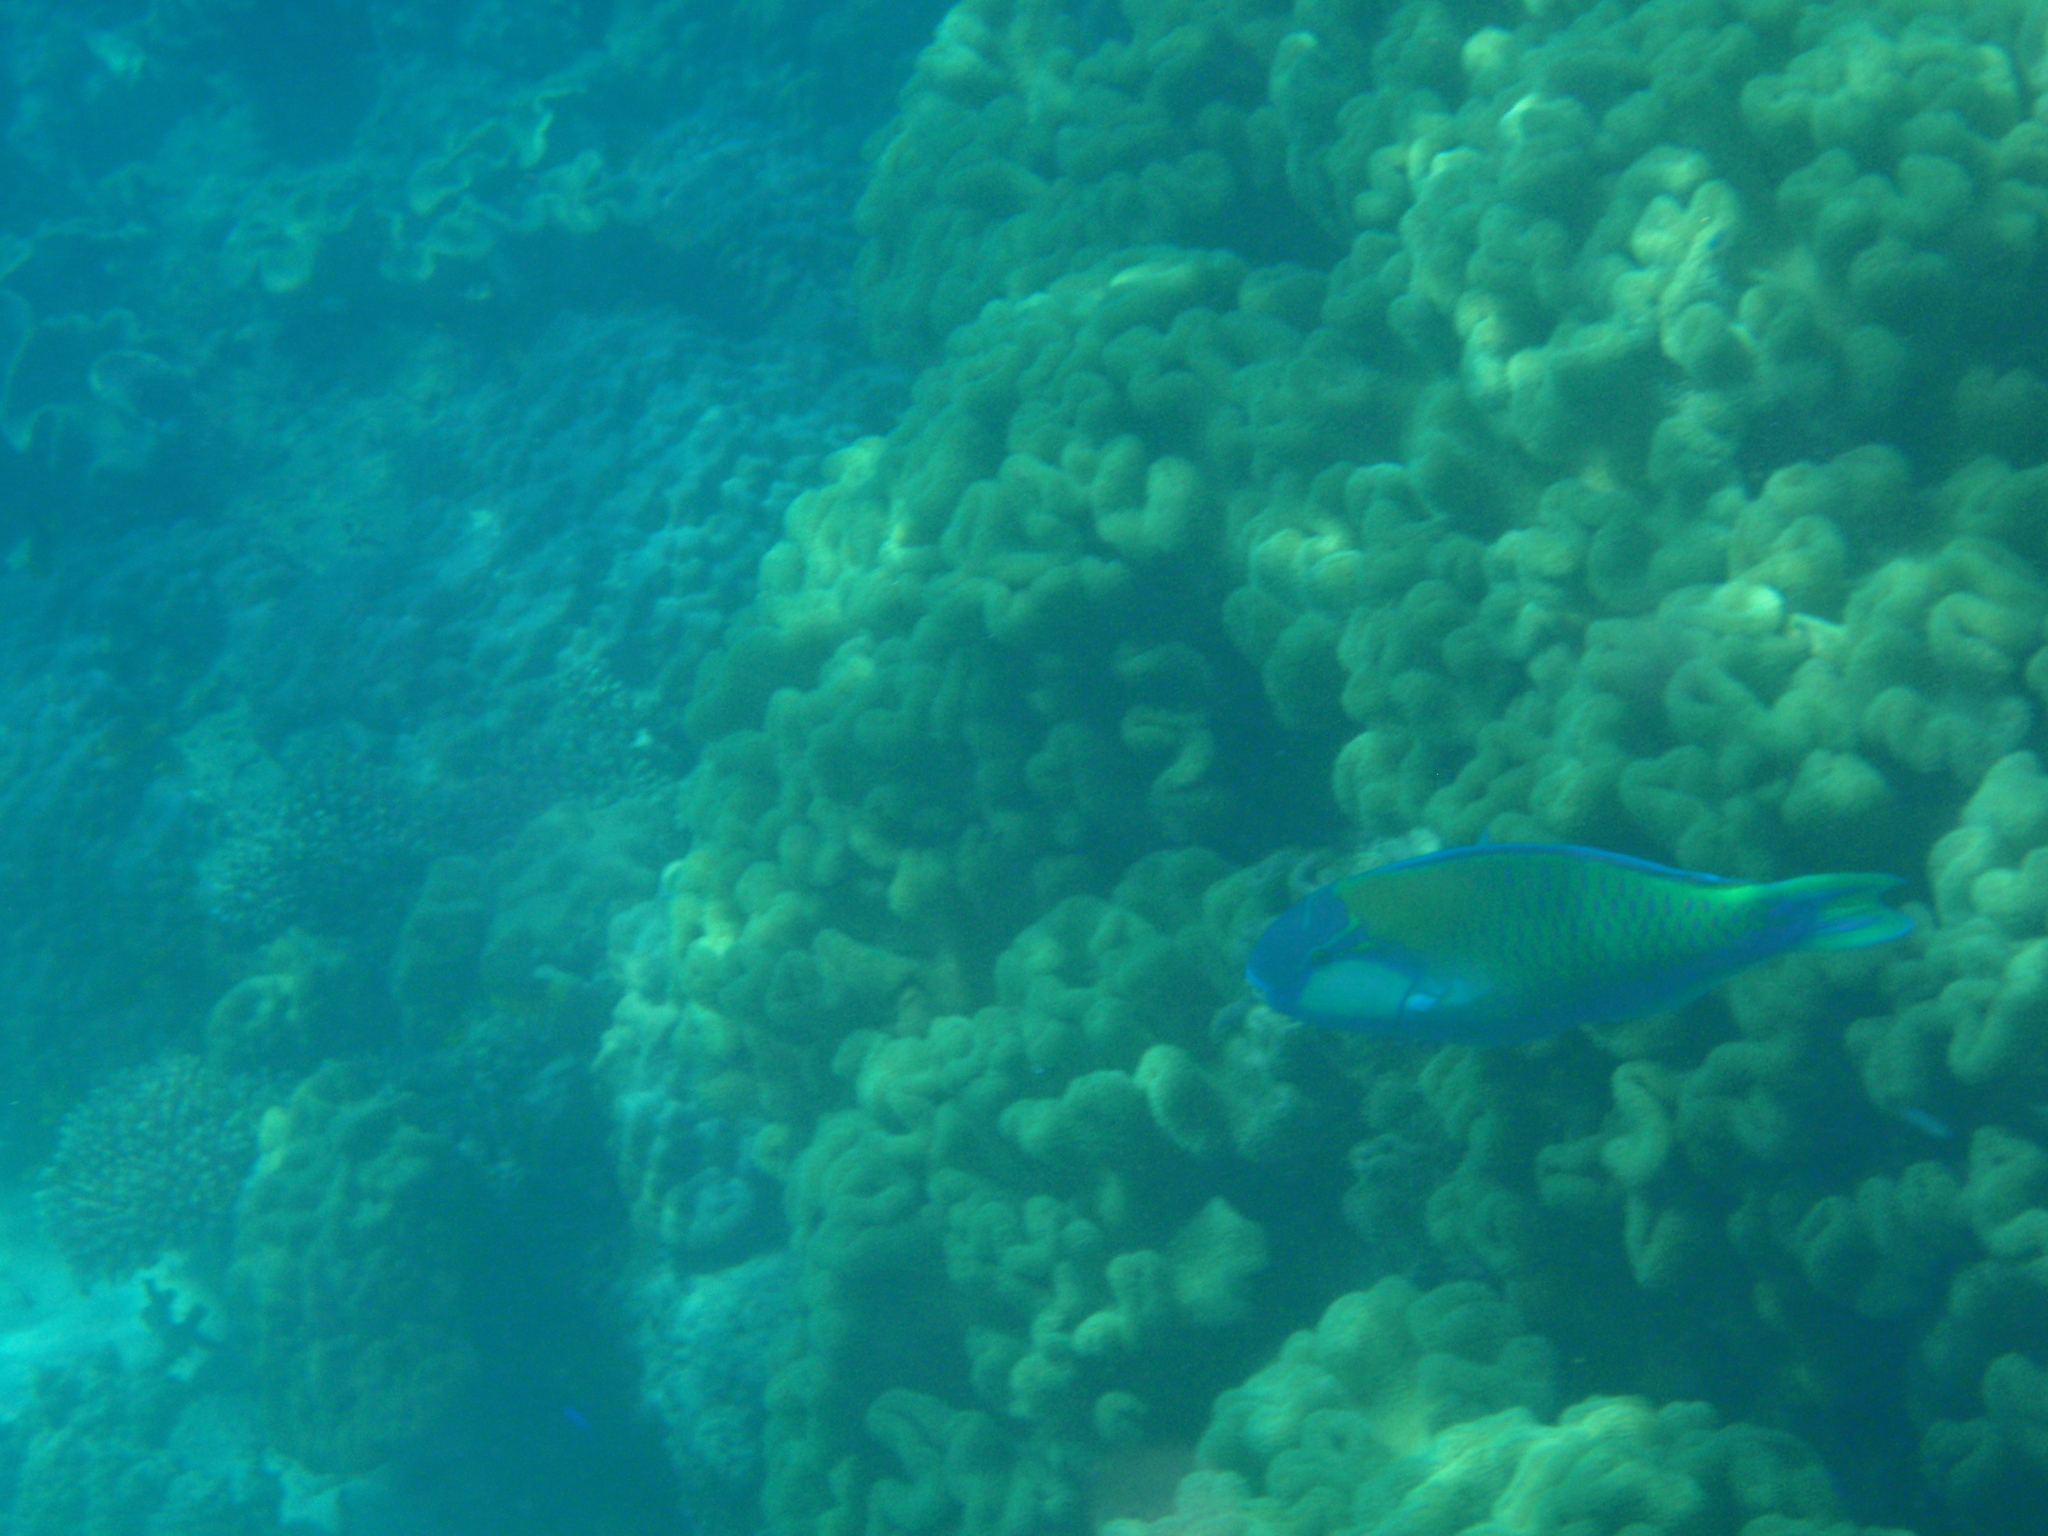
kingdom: Animalia
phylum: Chordata
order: Perciformes
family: Scaridae
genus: Chlorurus
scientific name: Chlorurus bleekeri
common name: Bleeker's parrotfish
